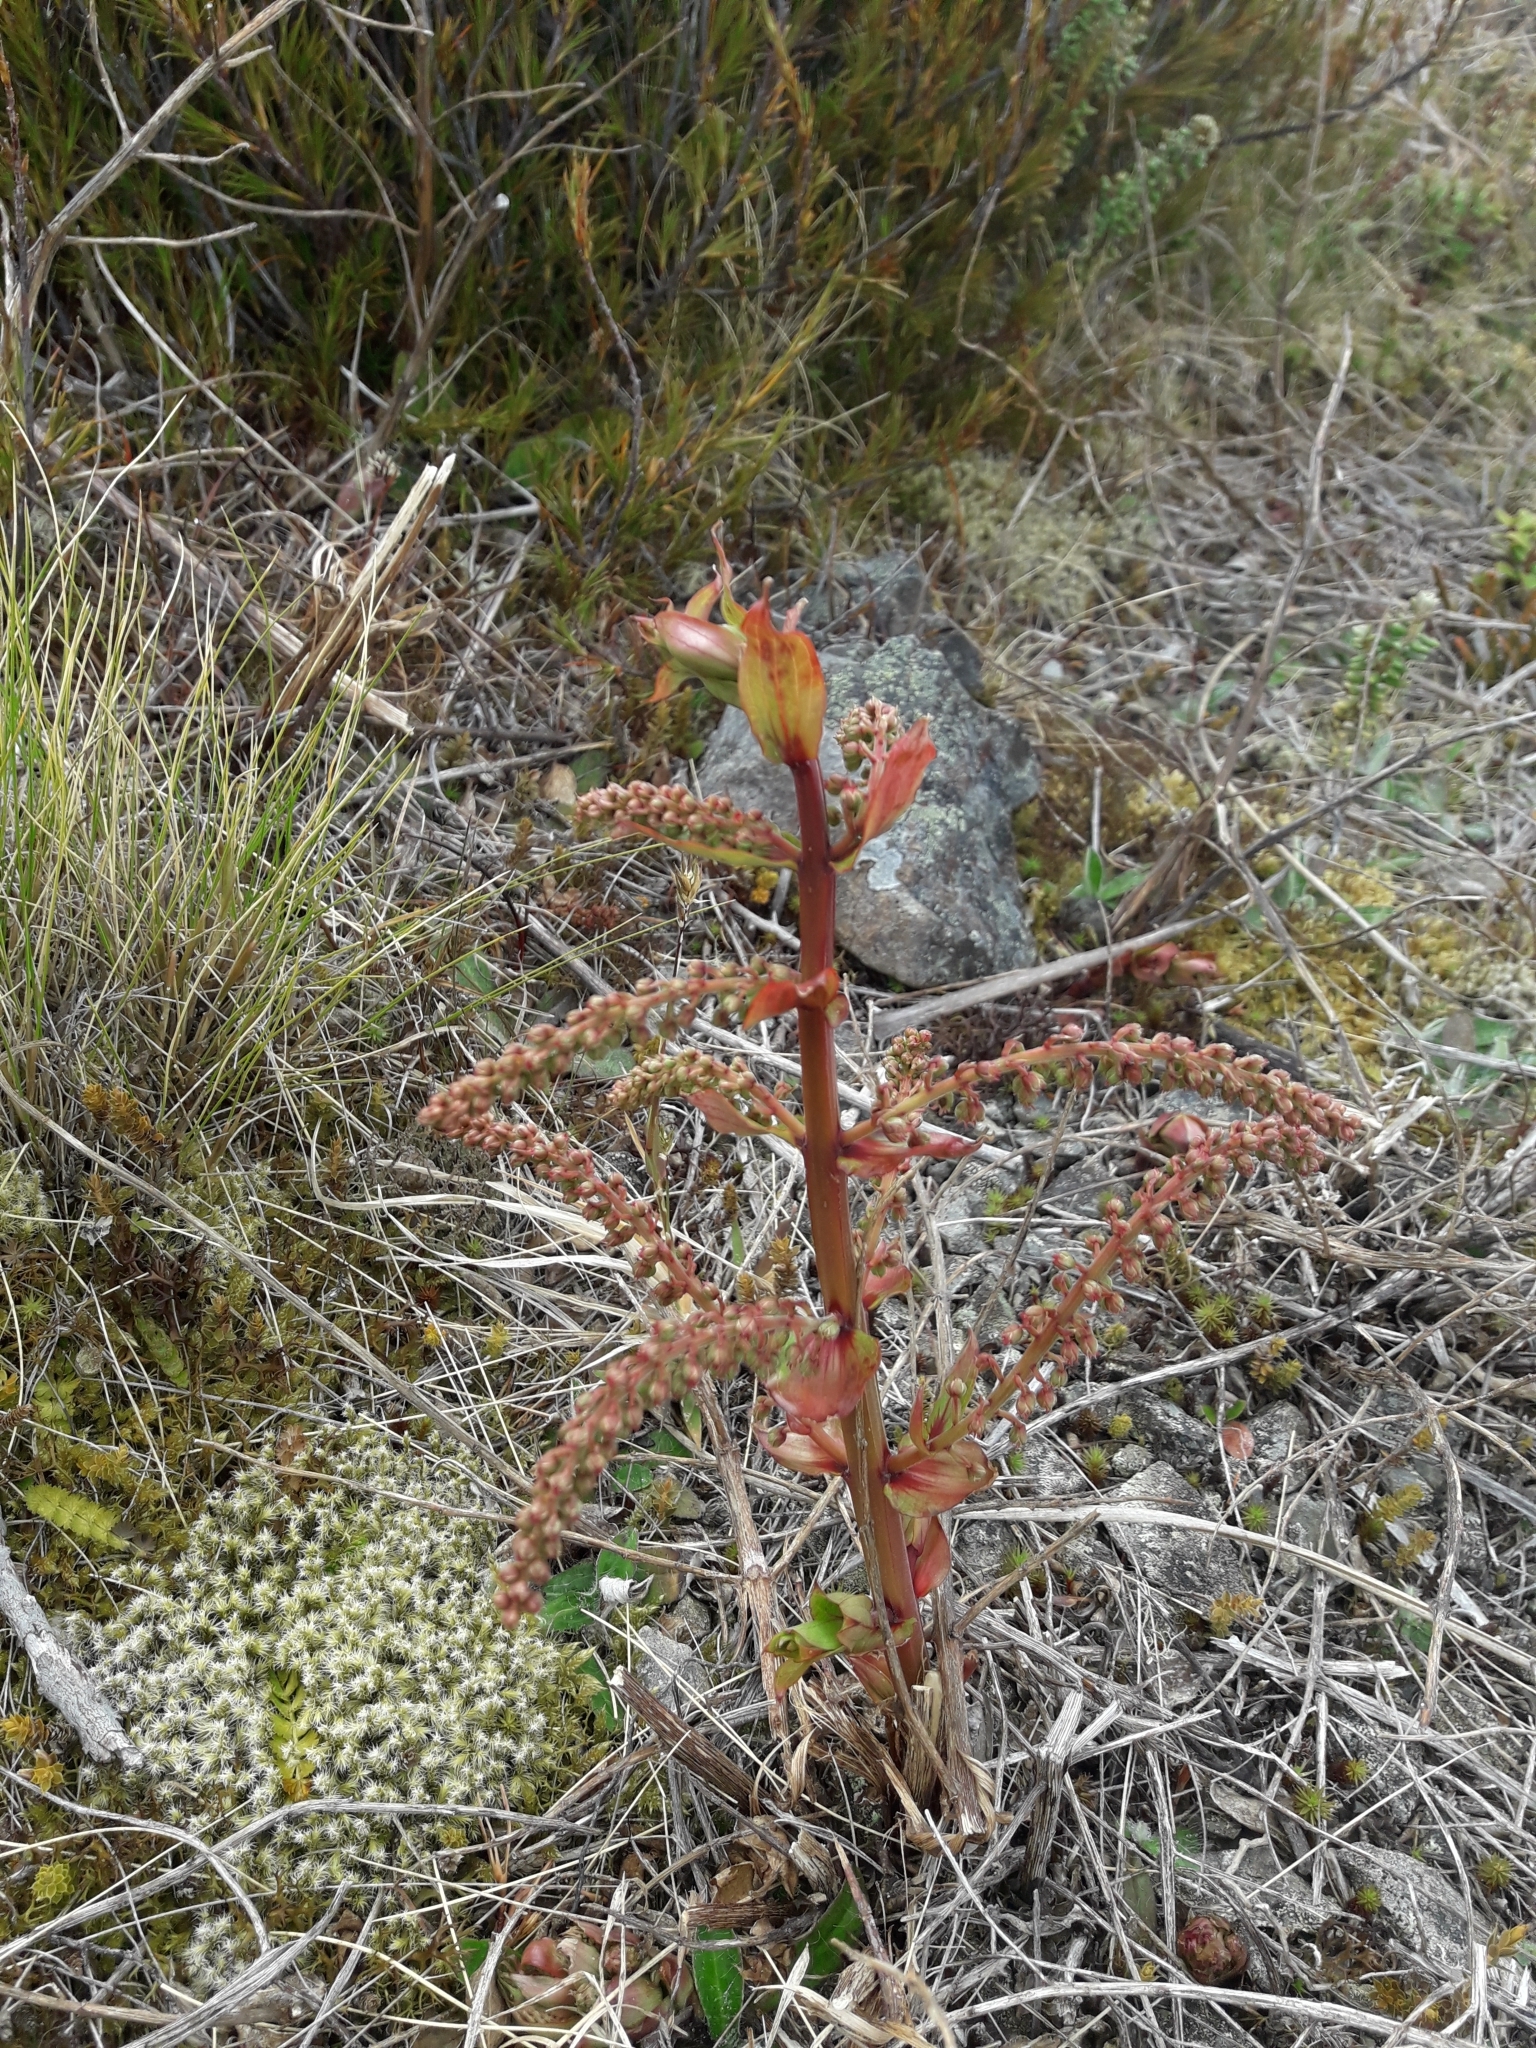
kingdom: Plantae
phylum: Tracheophyta
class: Magnoliopsida
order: Cucurbitales
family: Coriariaceae
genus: Coriaria
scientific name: Coriaria sarmentosa
